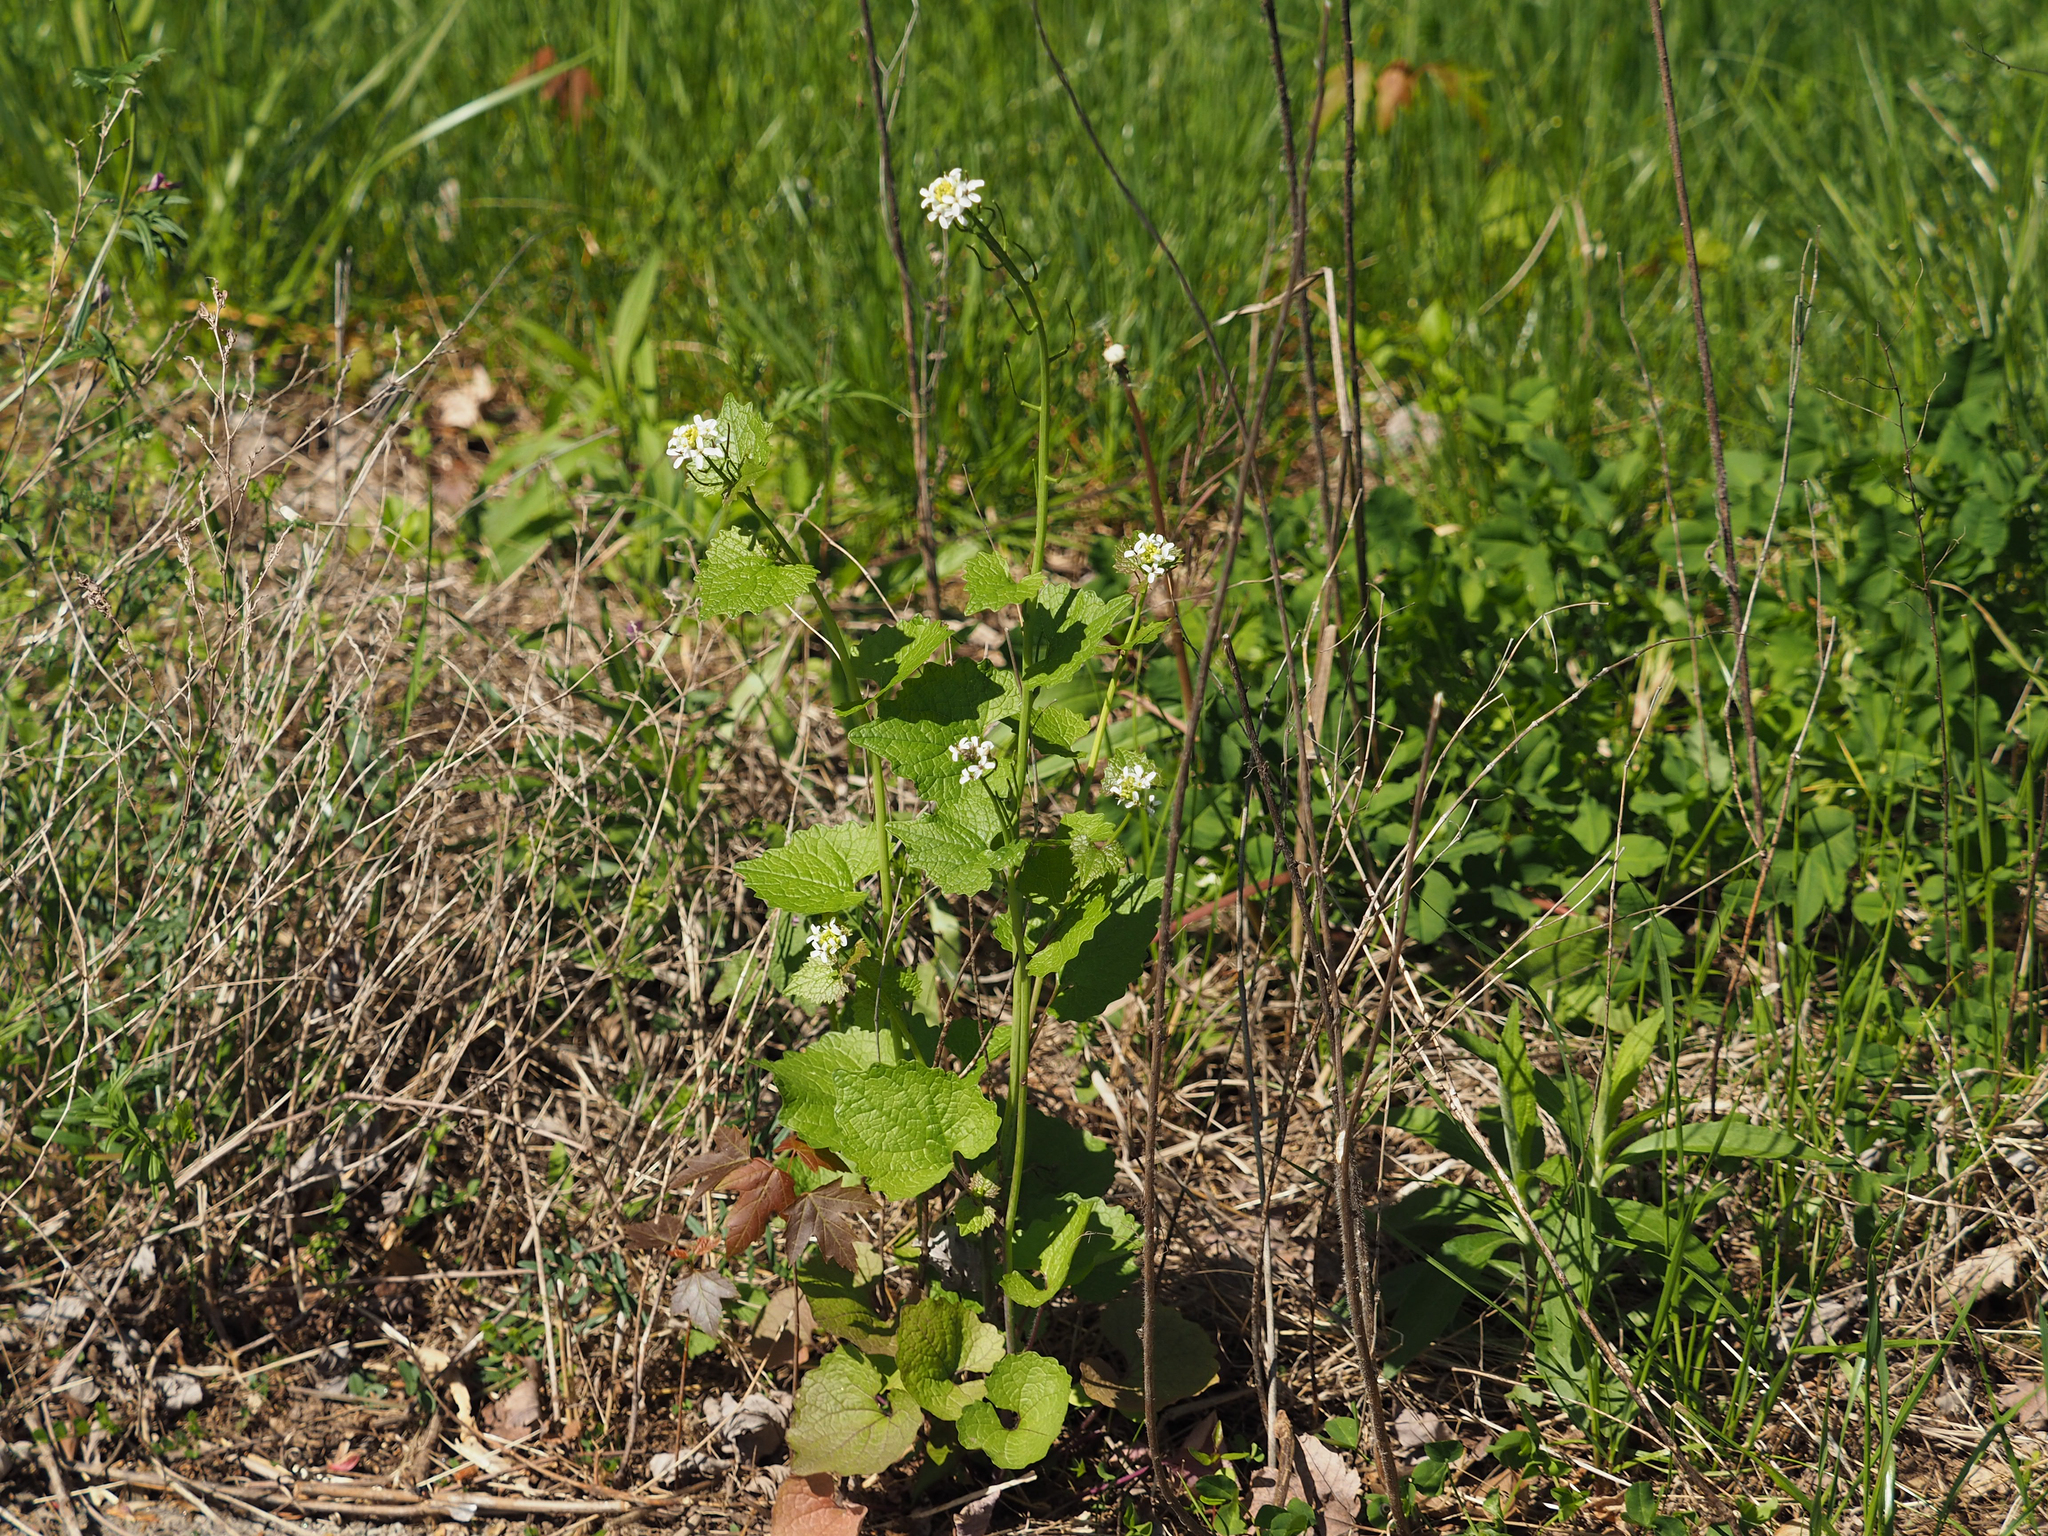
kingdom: Plantae
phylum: Tracheophyta
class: Magnoliopsida
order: Brassicales
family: Brassicaceae
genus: Alliaria
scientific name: Alliaria petiolata
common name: Garlic mustard
